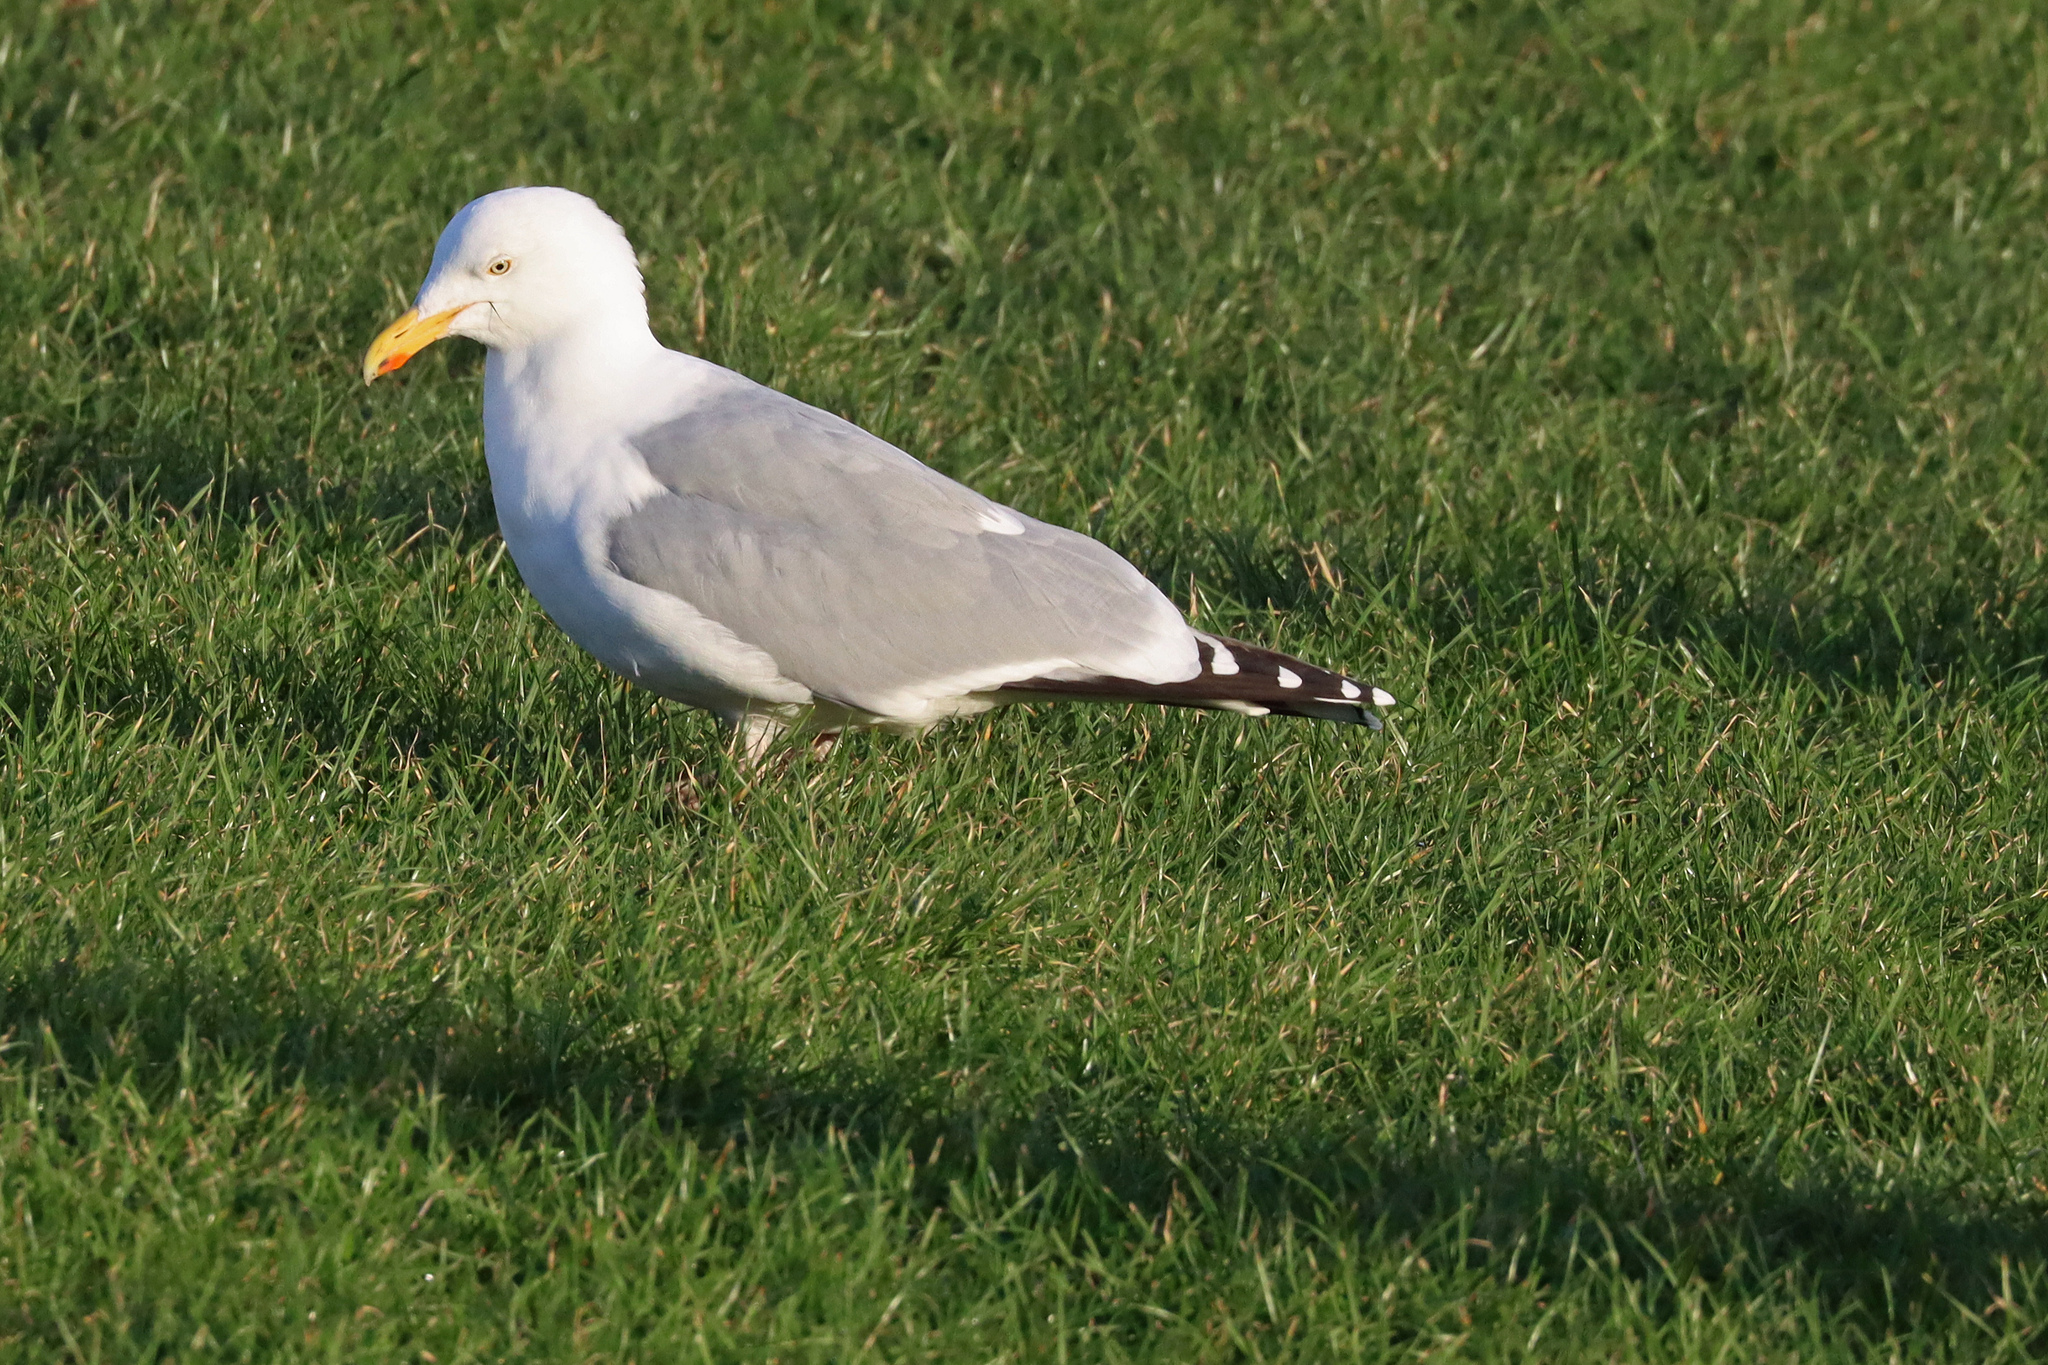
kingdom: Animalia
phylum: Chordata
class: Aves
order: Charadriiformes
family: Laridae
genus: Larus
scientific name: Larus argentatus
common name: Herring gull
